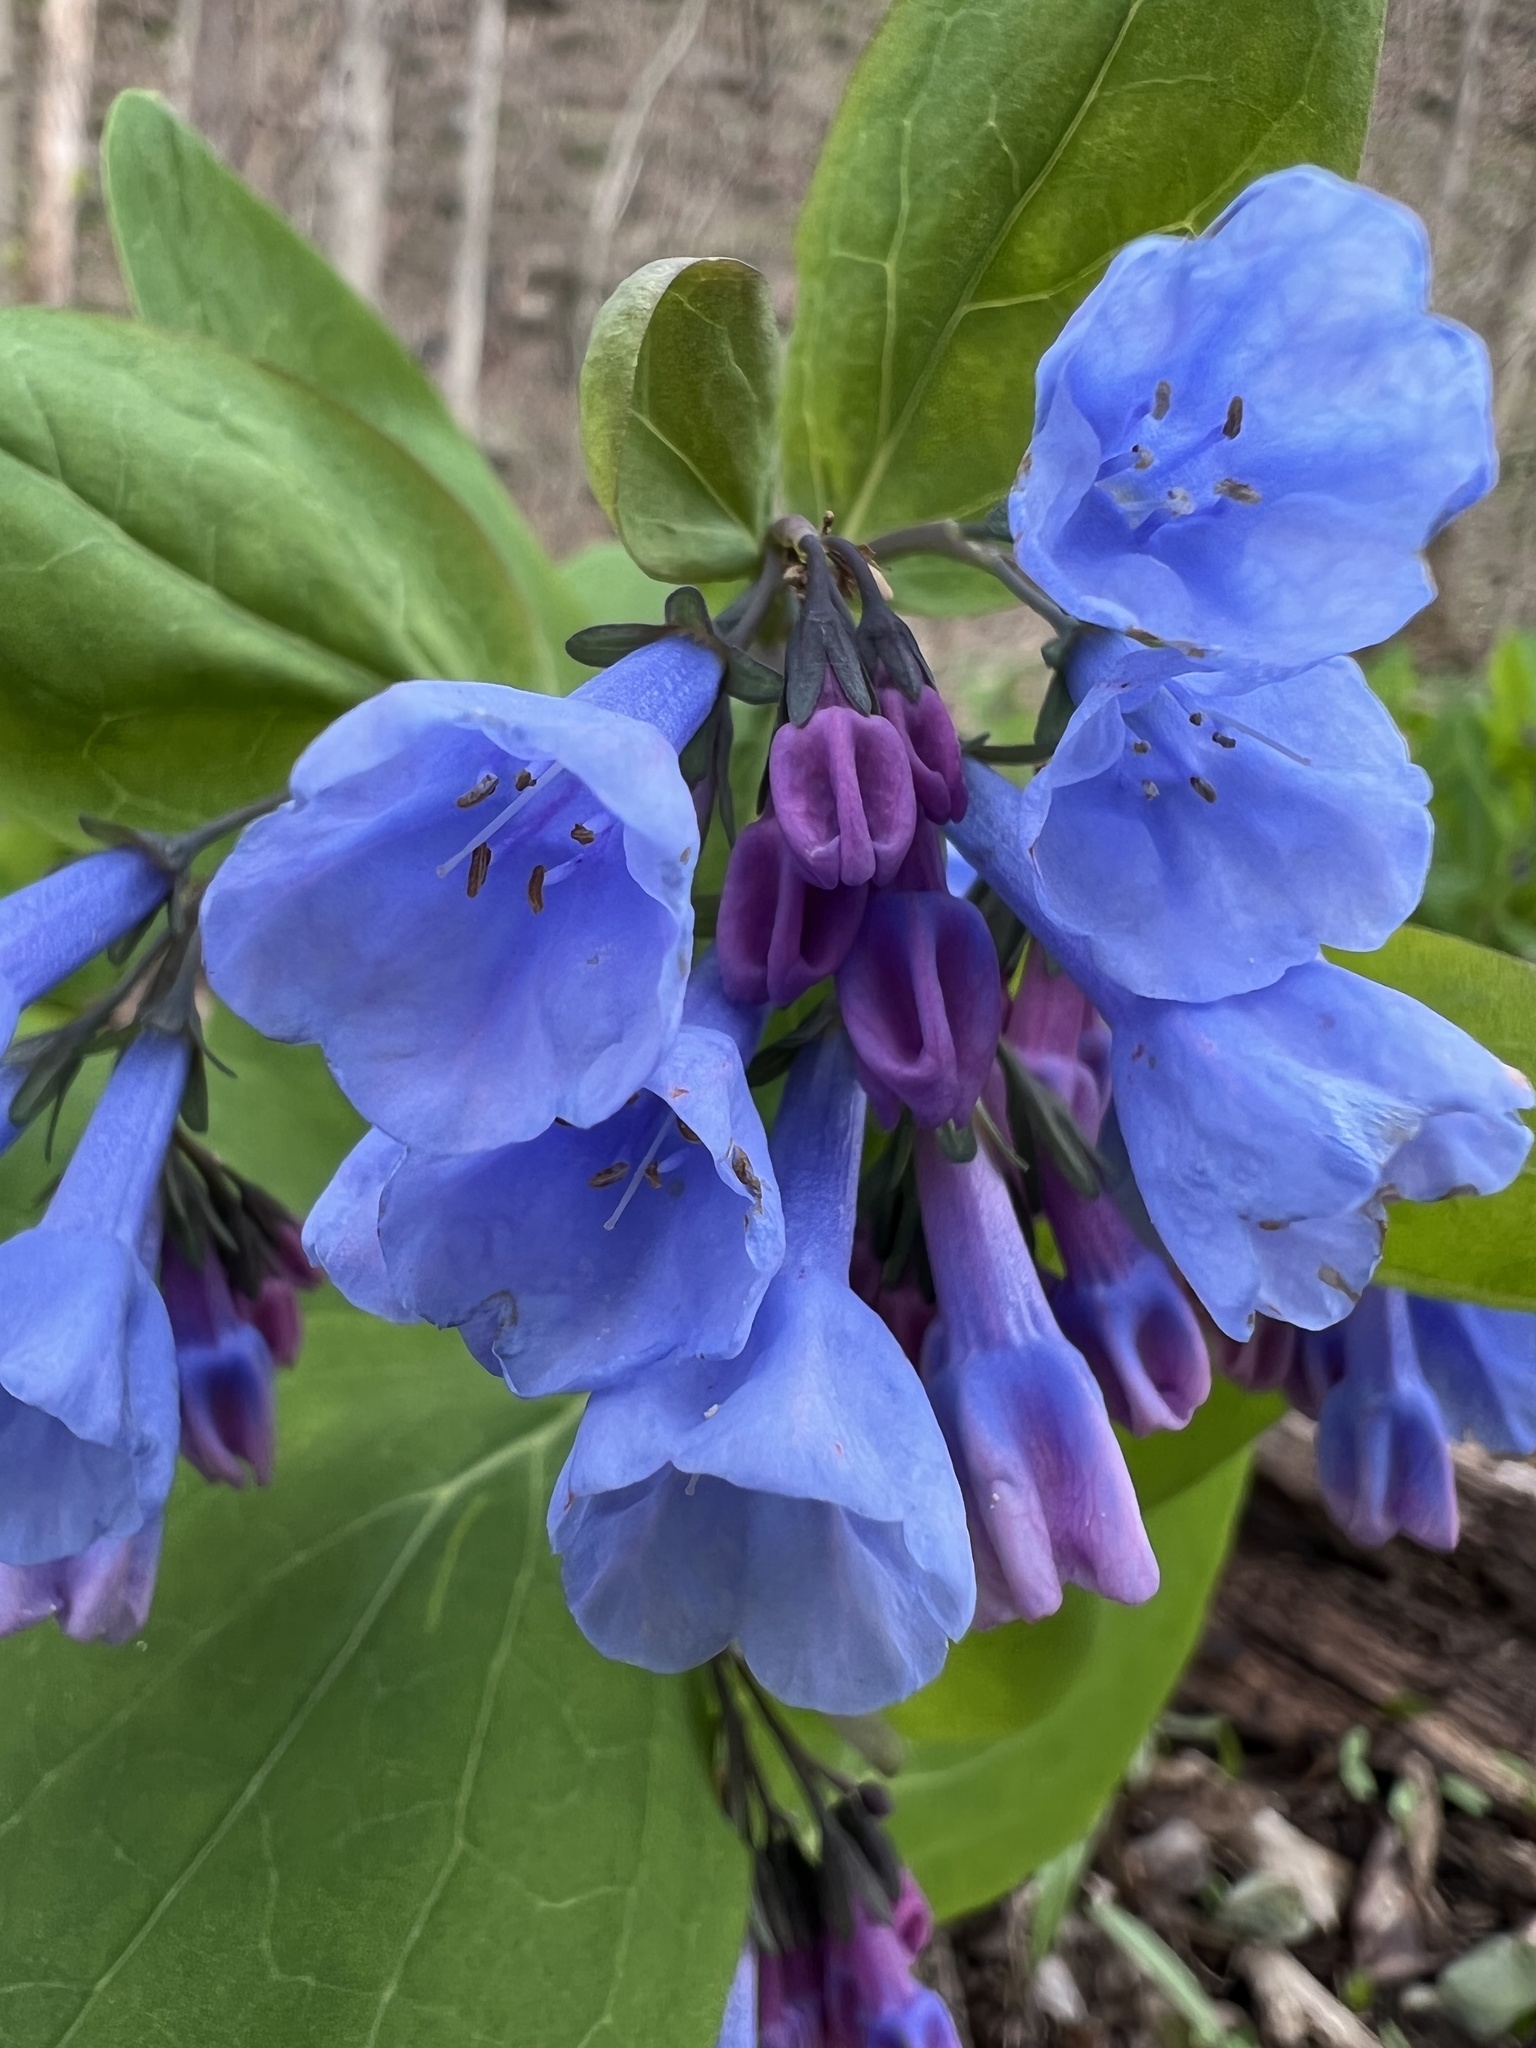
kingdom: Plantae
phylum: Tracheophyta
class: Magnoliopsida
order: Boraginales
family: Boraginaceae
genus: Mertensia
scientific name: Mertensia virginica
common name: Virginia bluebells
